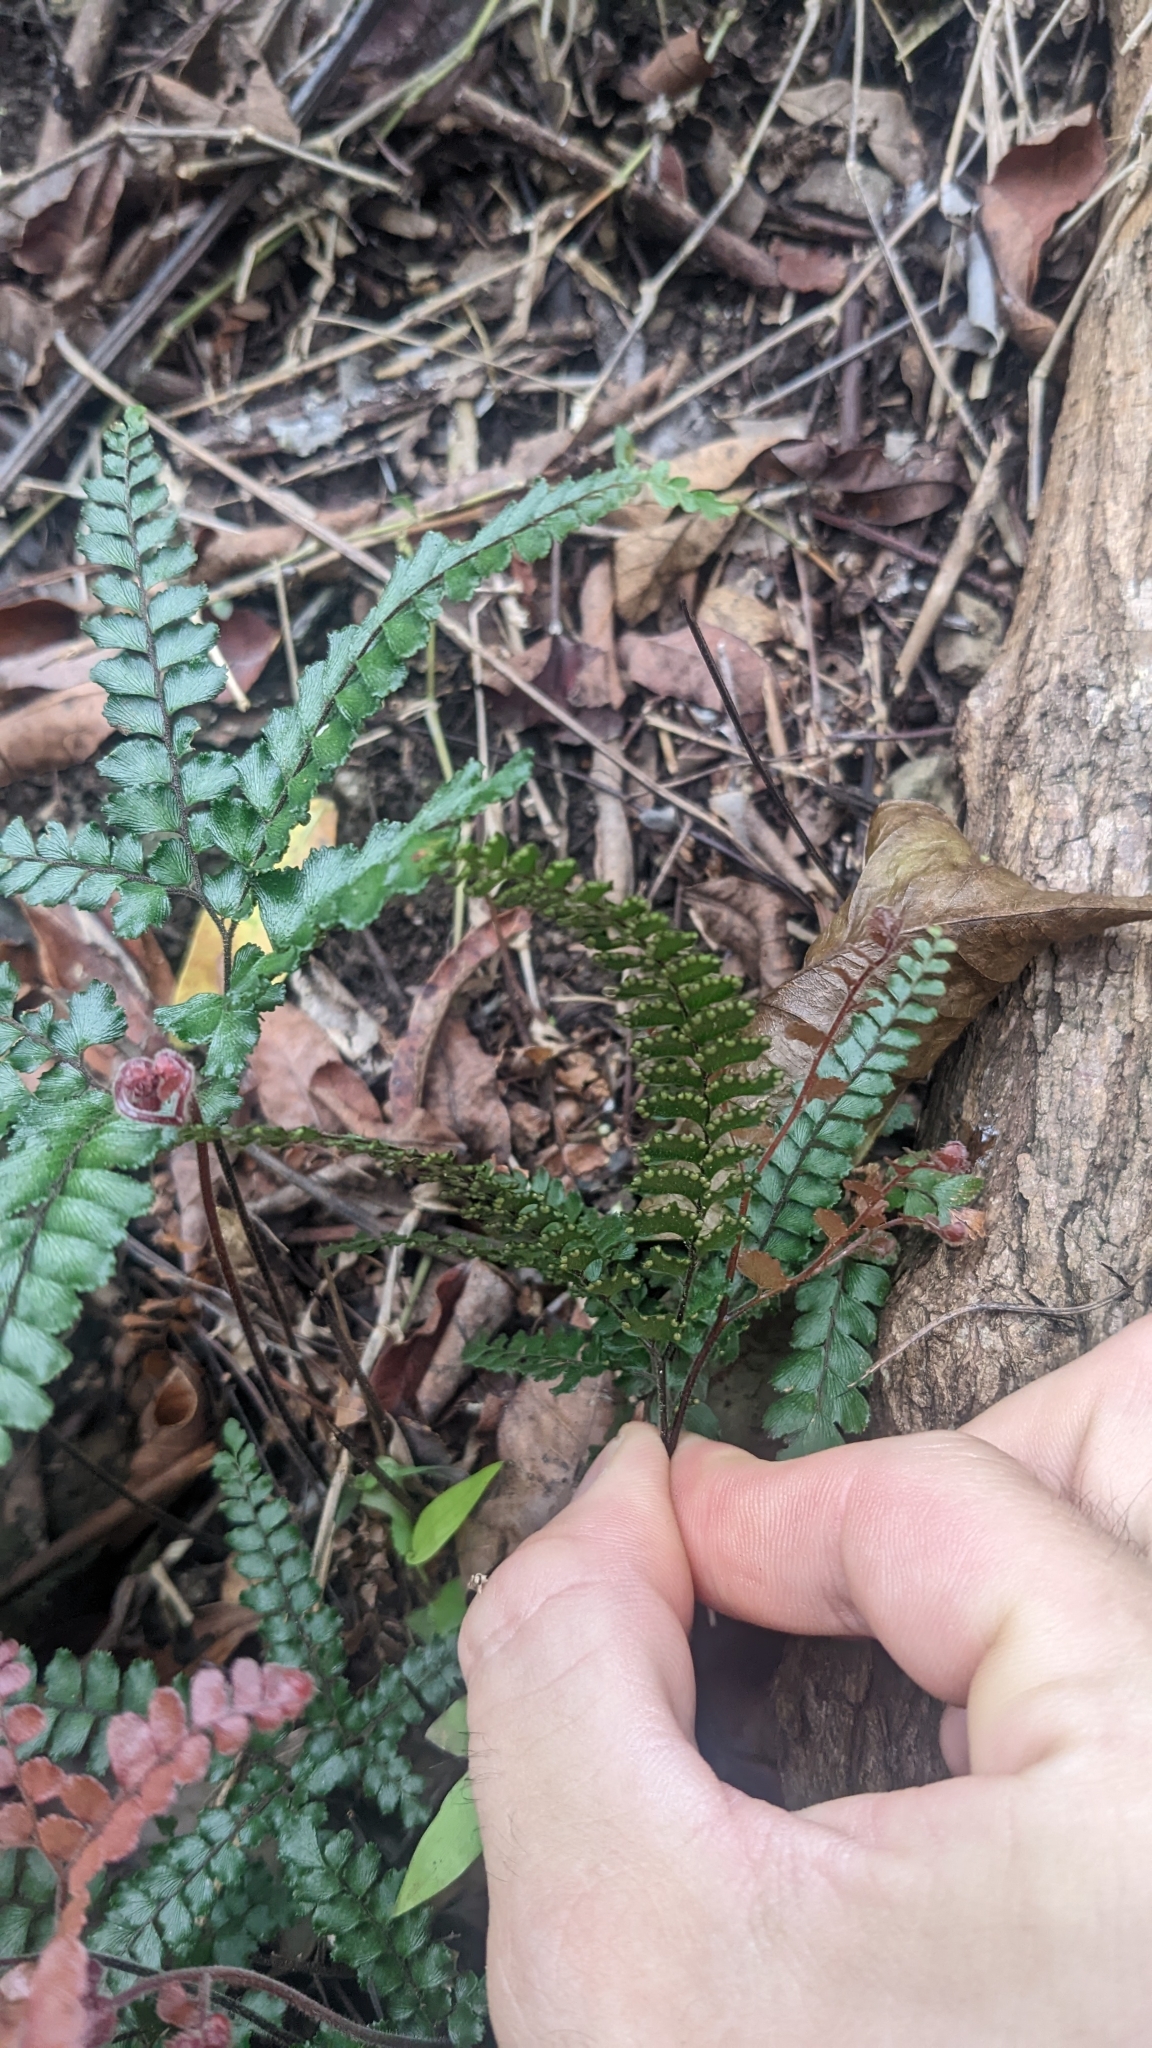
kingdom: Plantae
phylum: Tracheophyta
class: Polypodiopsida
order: Polypodiales
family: Pteridaceae
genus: Adiantum
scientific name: Adiantum hispidulum
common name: Rough maidenhair
